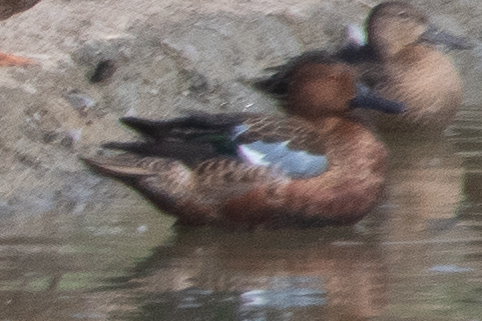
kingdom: Animalia
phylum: Chordata
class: Aves
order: Anseriformes
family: Anatidae
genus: Spatula
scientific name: Spatula cyanoptera
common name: Cinnamon teal
